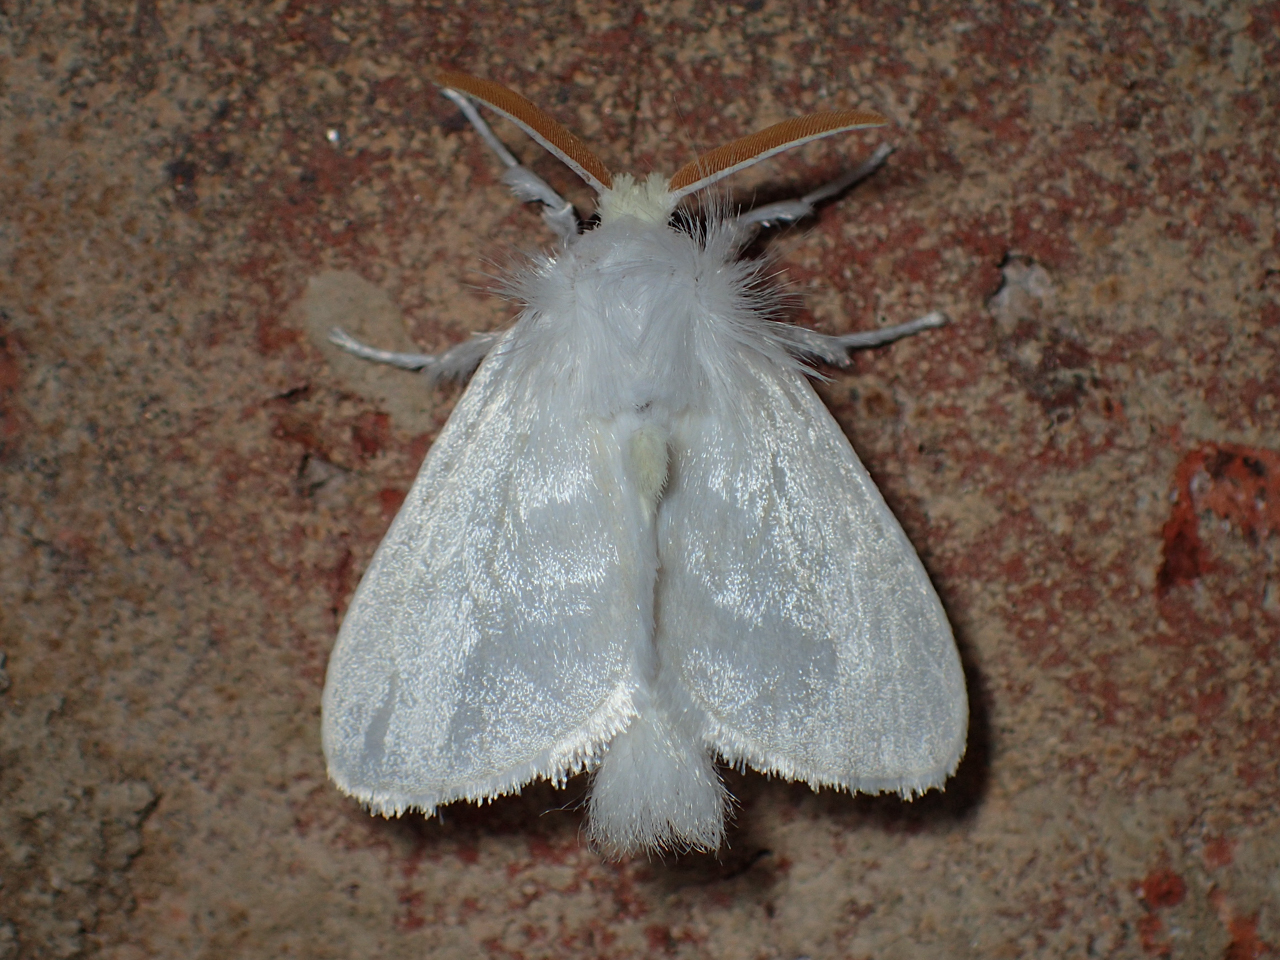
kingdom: Animalia
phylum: Arthropoda
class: Insecta
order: Lepidoptera
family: Megalopygidae
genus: Norape
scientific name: Norape cretata
